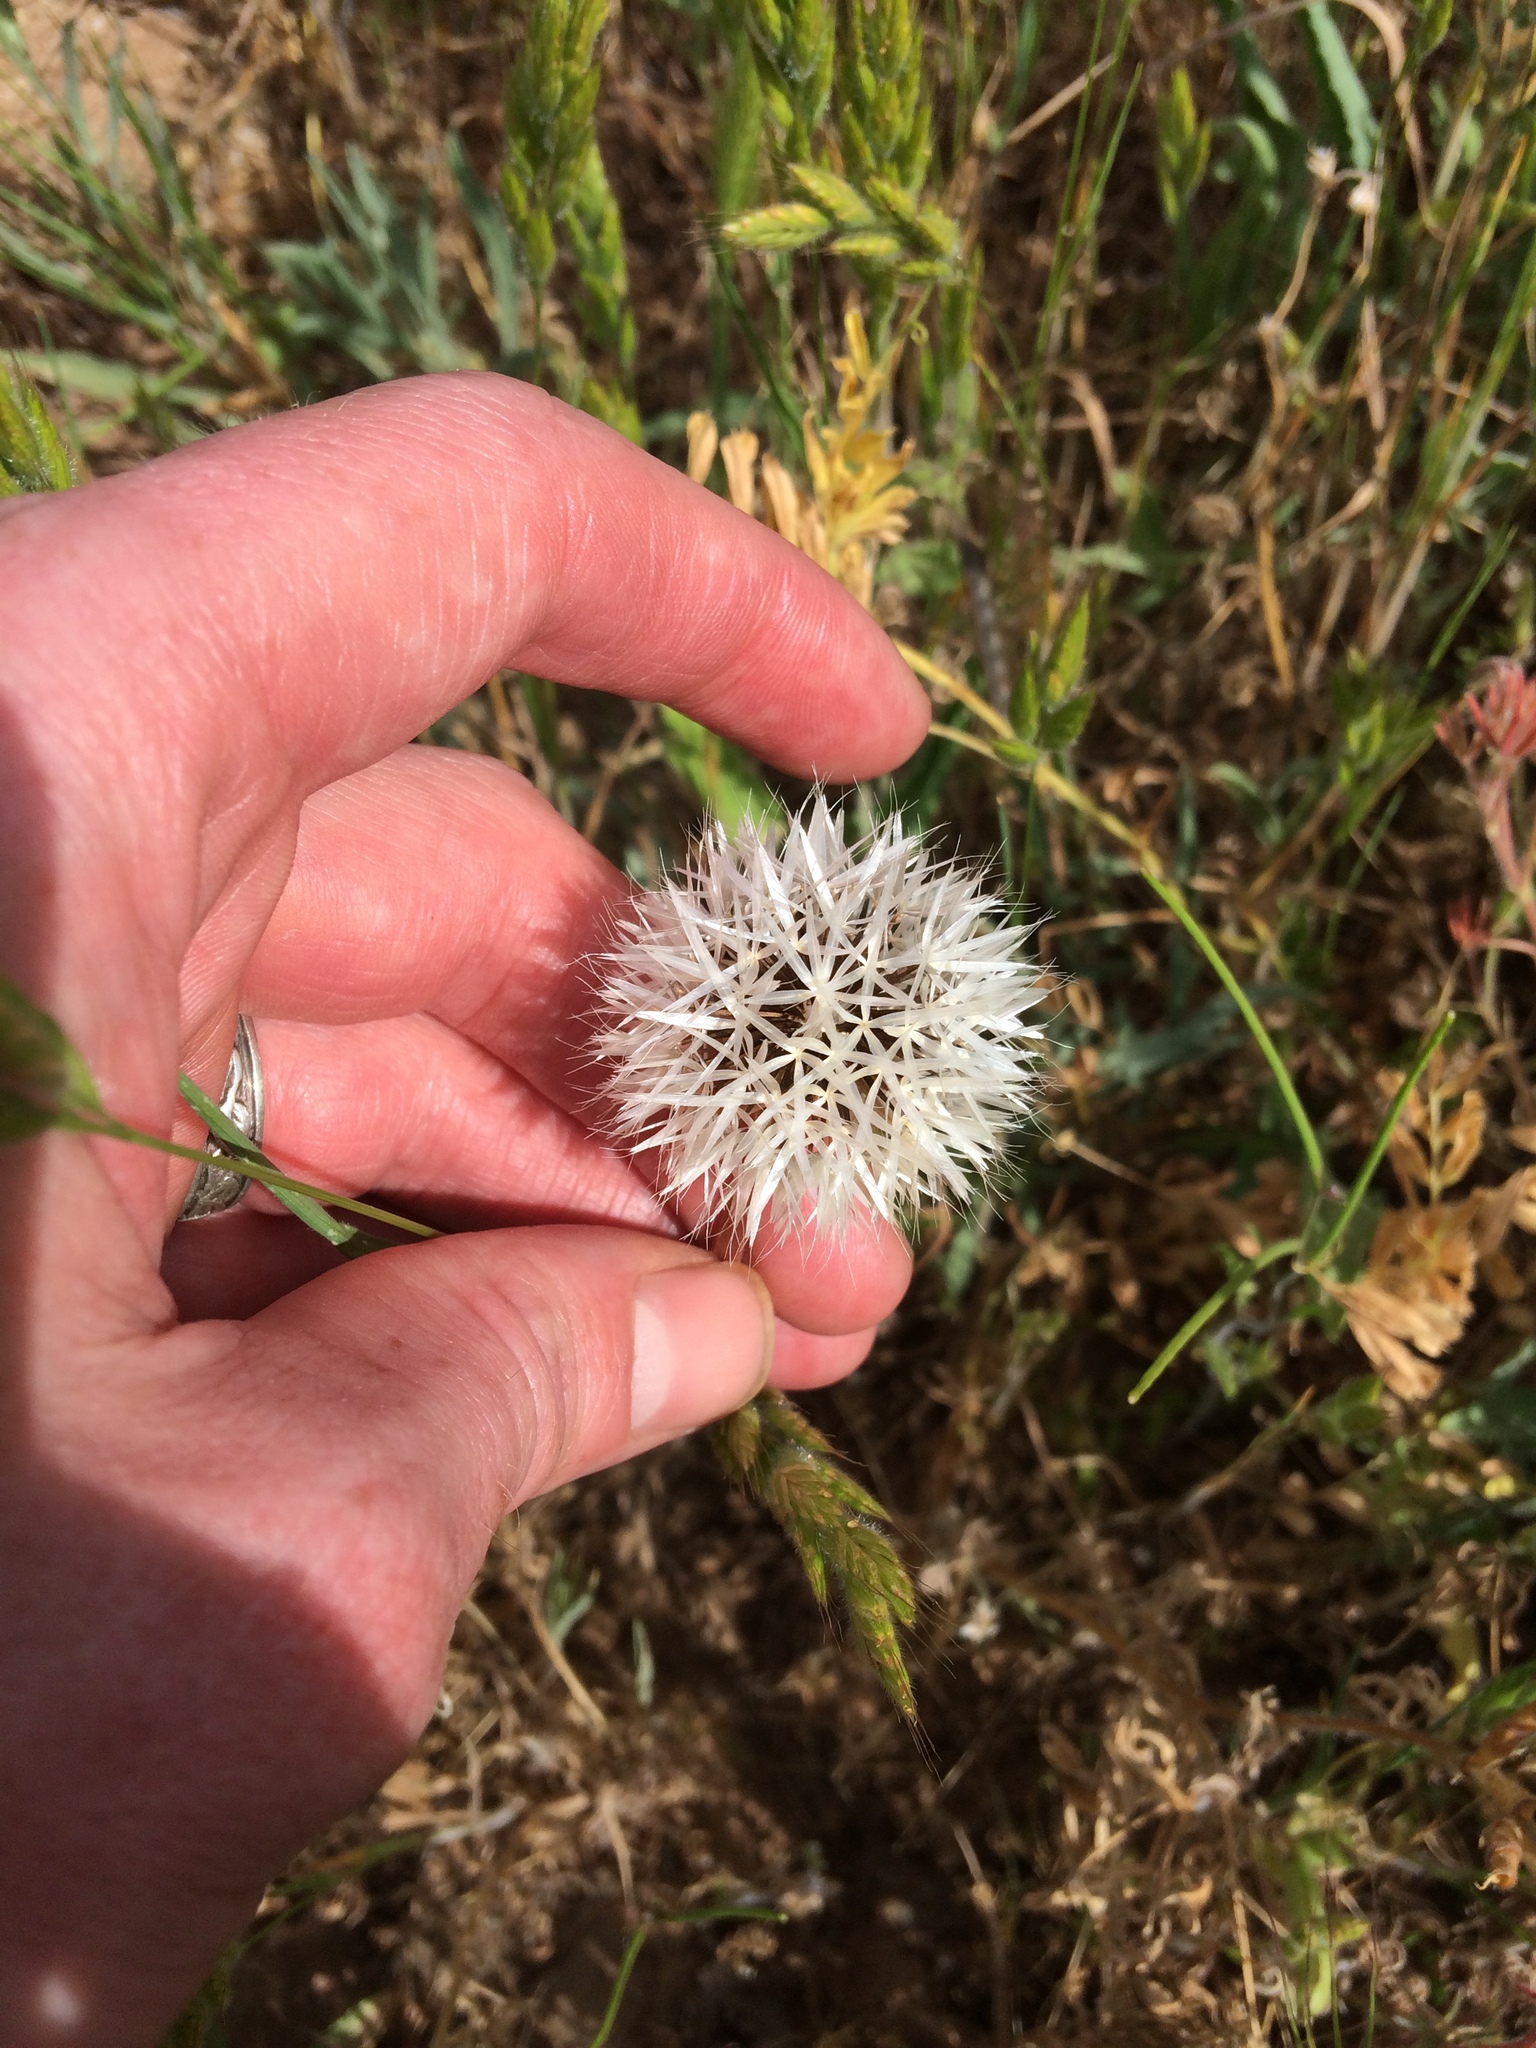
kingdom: Plantae
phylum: Tracheophyta
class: Magnoliopsida
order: Asterales
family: Asteraceae
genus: Microseris
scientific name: Microseris lindleyi
